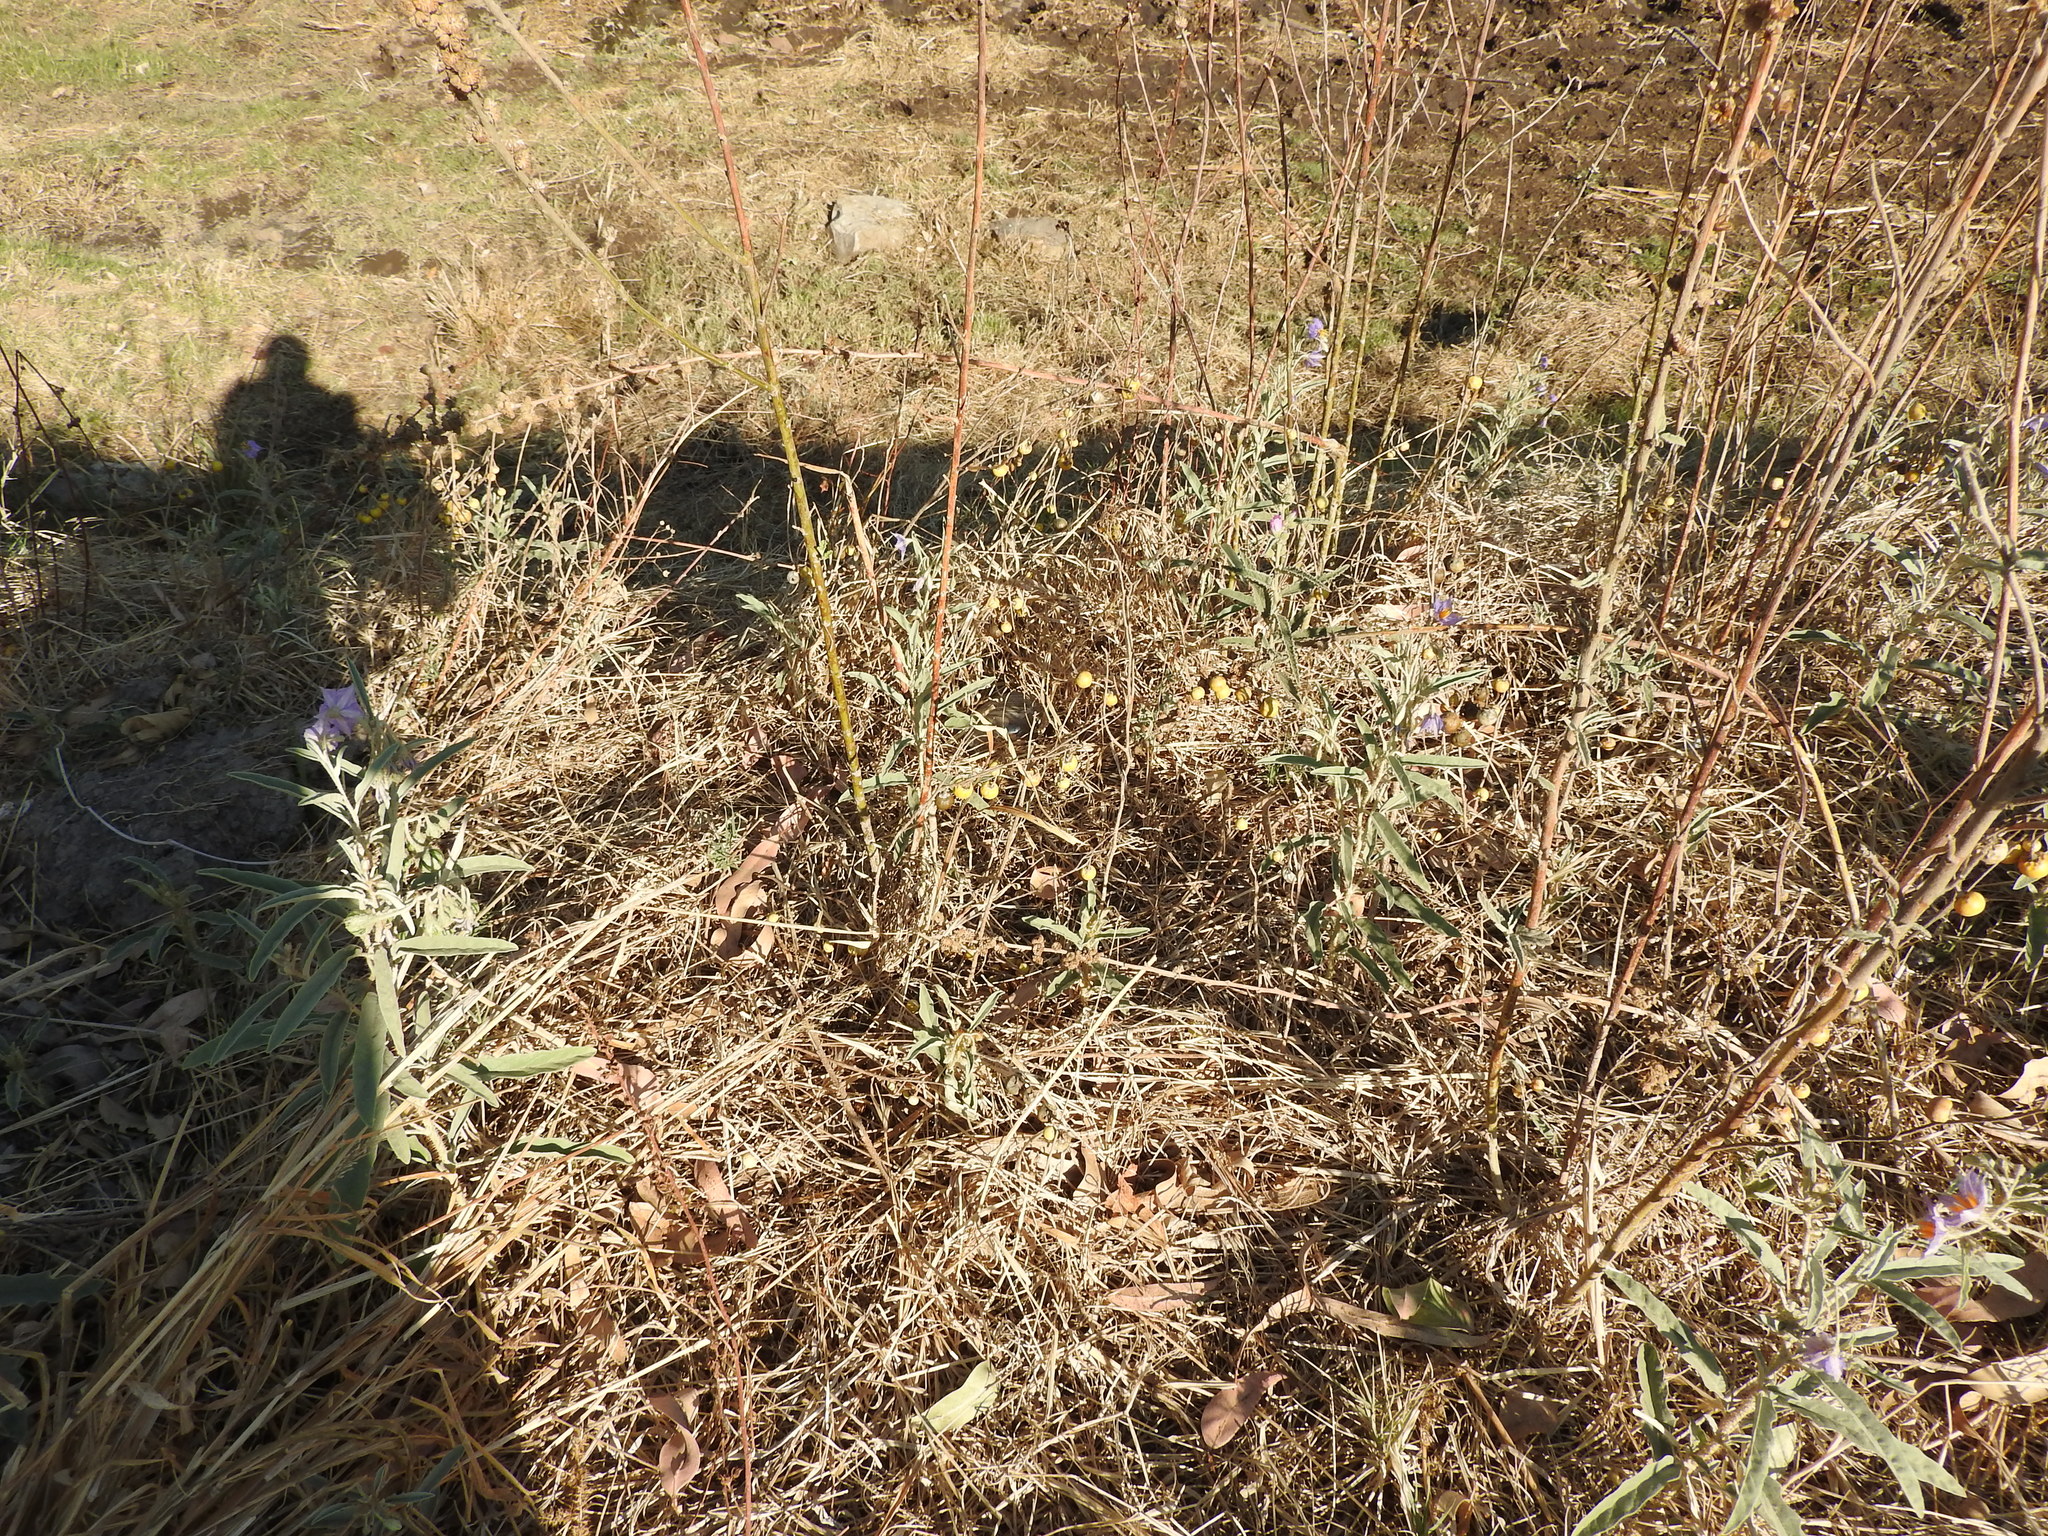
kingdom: Plantae
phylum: Tracheophyta
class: Magnoliopsida
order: Solanales
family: Solanaceae
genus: Solanum
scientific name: Solanum elaeagnifolium
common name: Silverleaf nightshade
